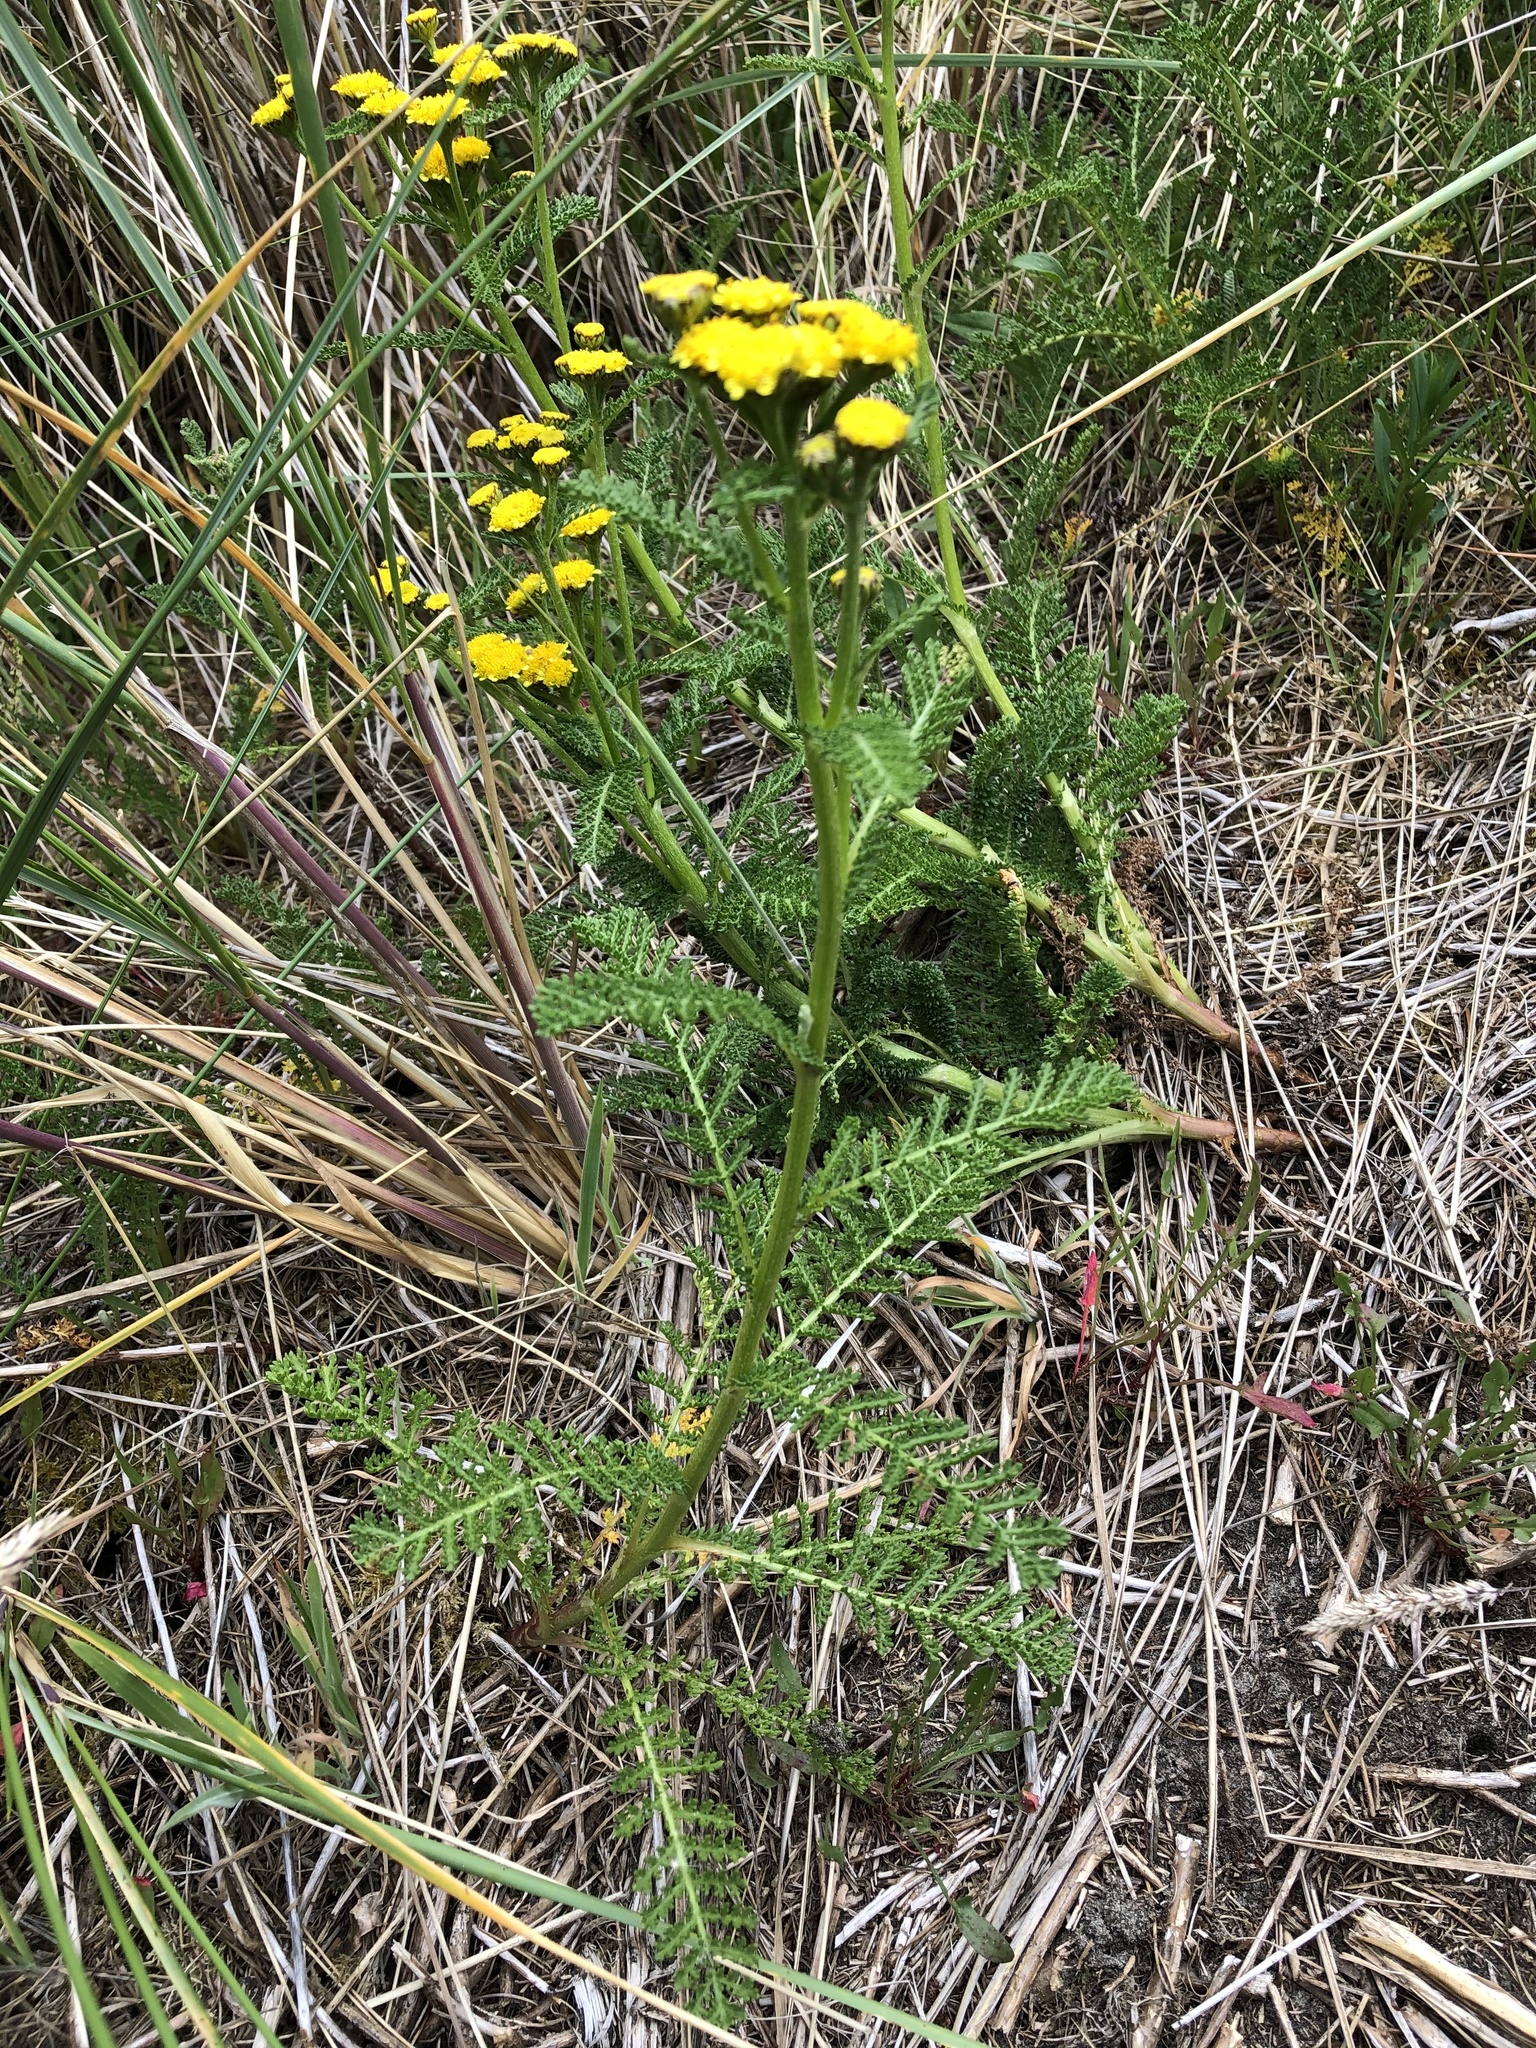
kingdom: Plantae
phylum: Tracheophyta
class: Magnoliopsida
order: Asterales
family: Asteraceae
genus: Tanacetum
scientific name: Tanacetum bipinnatum
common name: Dwarf tansy
